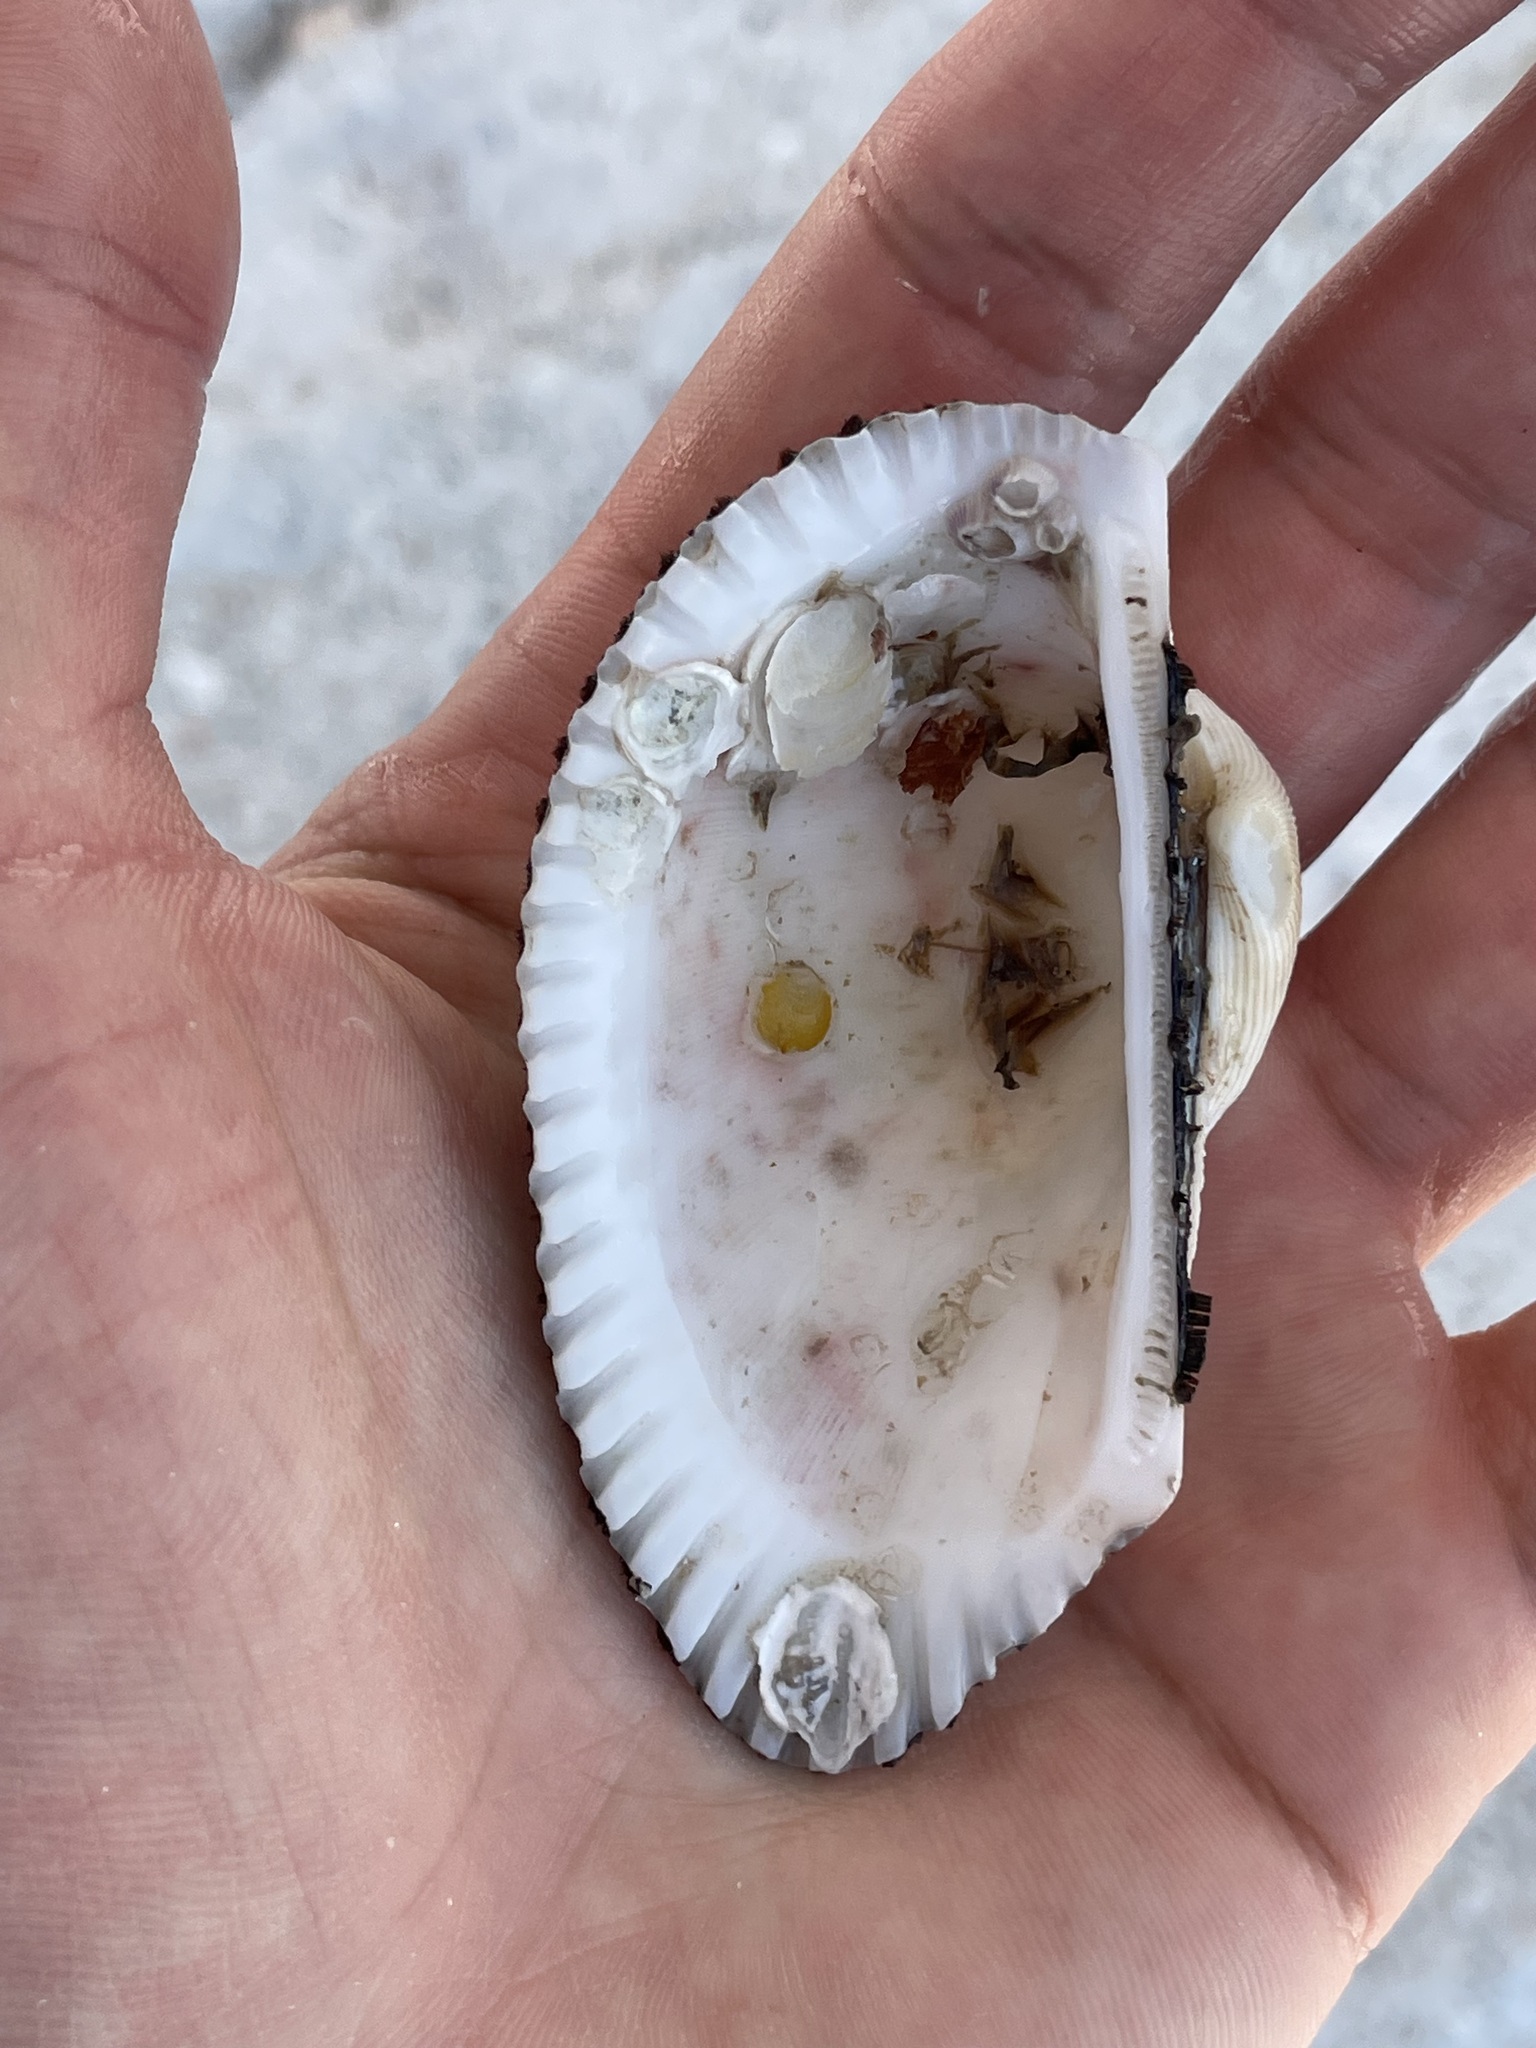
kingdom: Animalia
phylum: Mollusca
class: Bivalvia
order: Arcida
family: Arcidae
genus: Anadara
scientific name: Anadara secticostata
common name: Cut-ribbed ark
